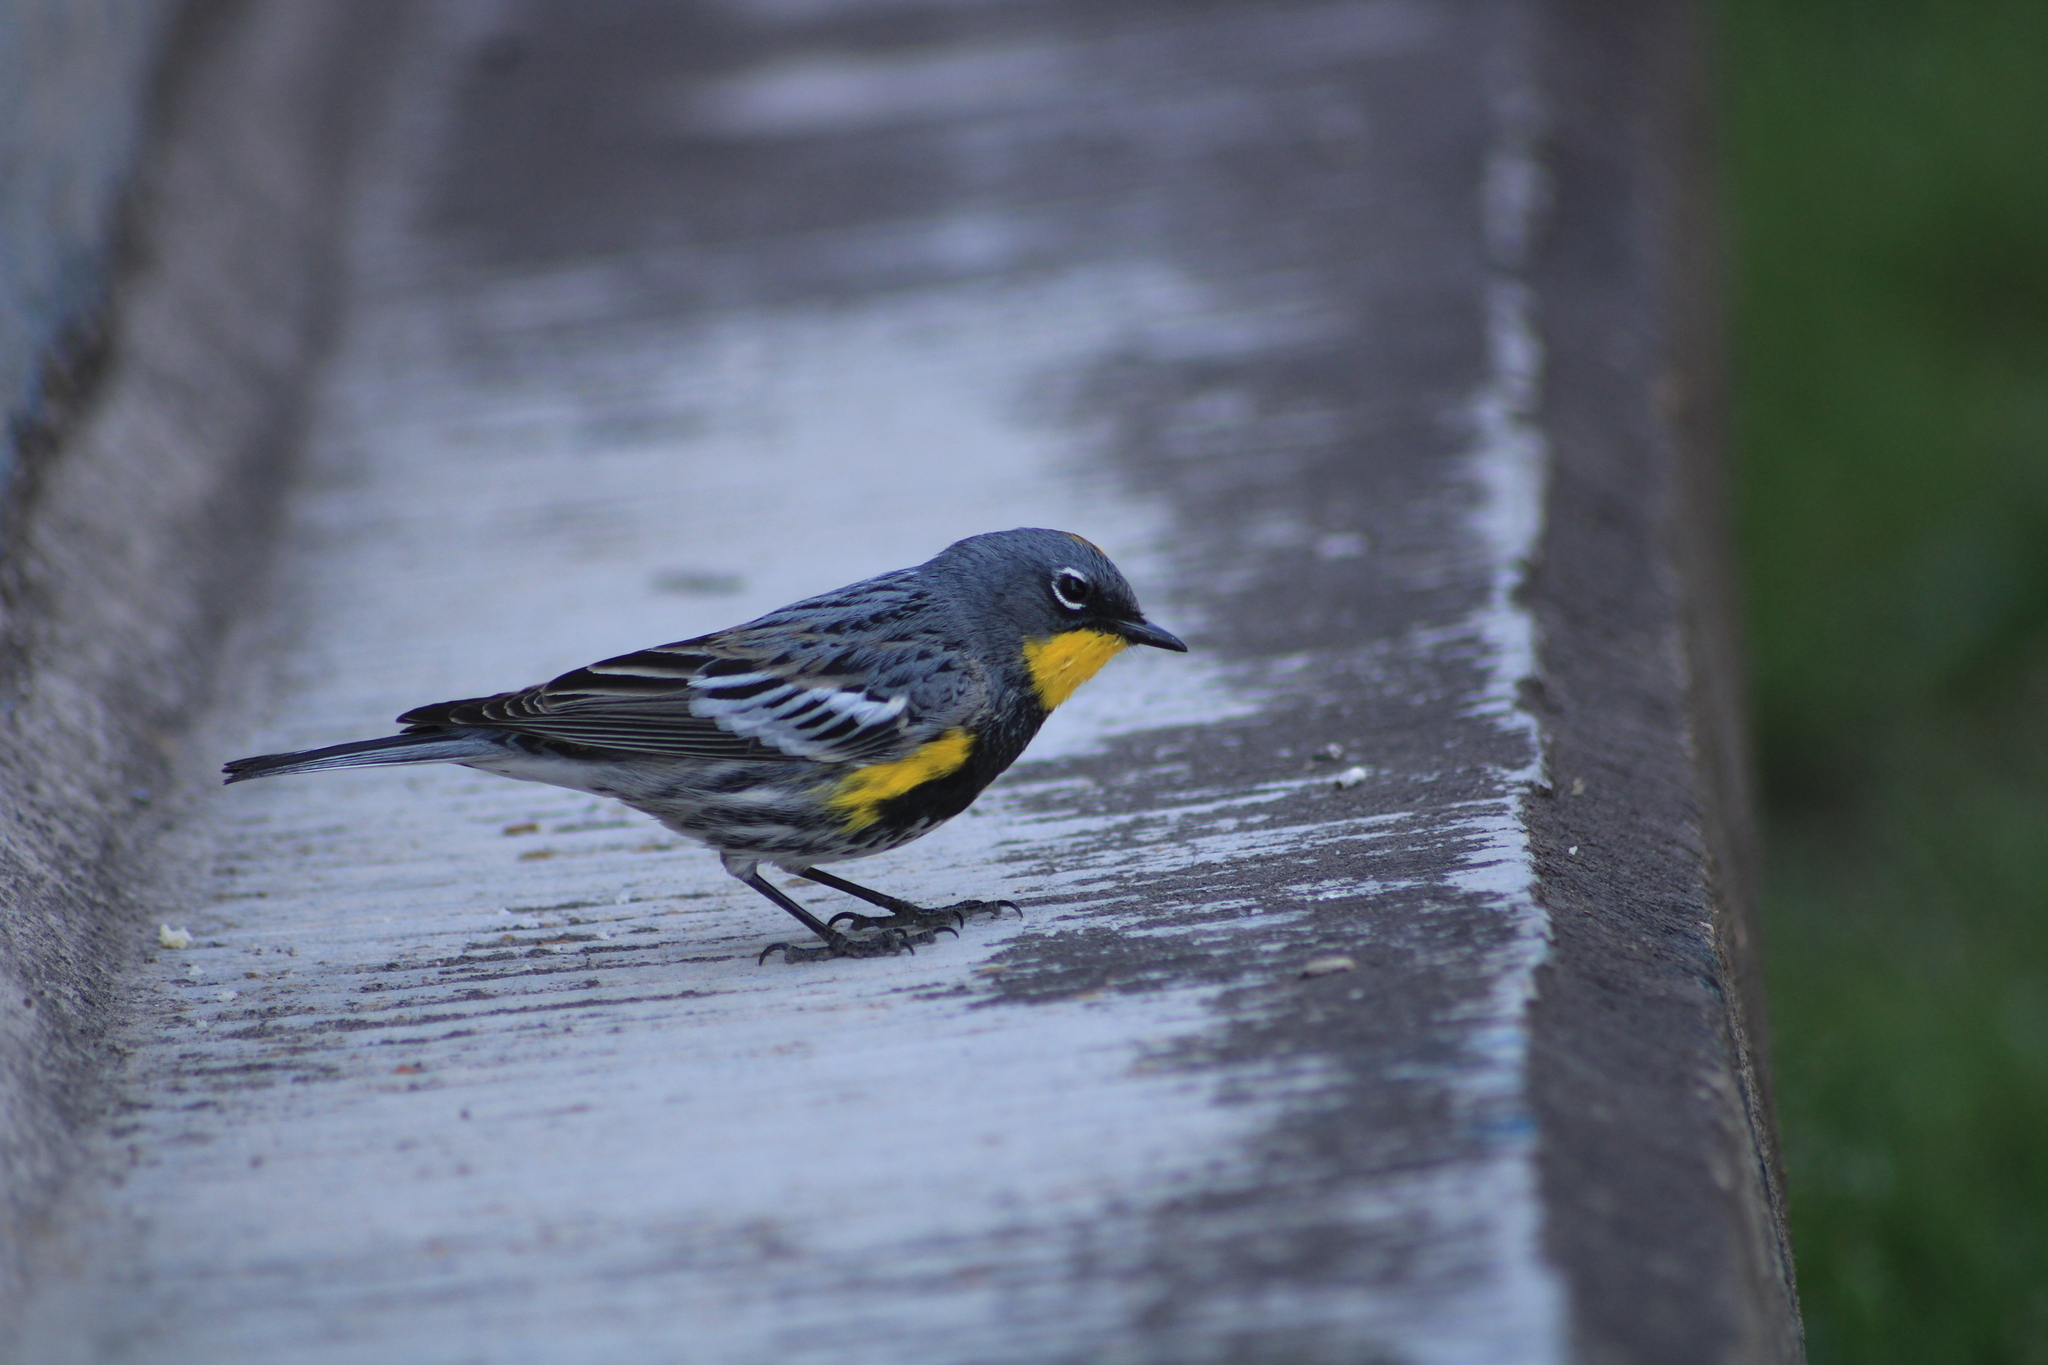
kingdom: Animalia
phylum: Chordata
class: Aves
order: Passeriformes
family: Parulidae
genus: Setophaga
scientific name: Setophaga auduboni
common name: Audubon's warbler
